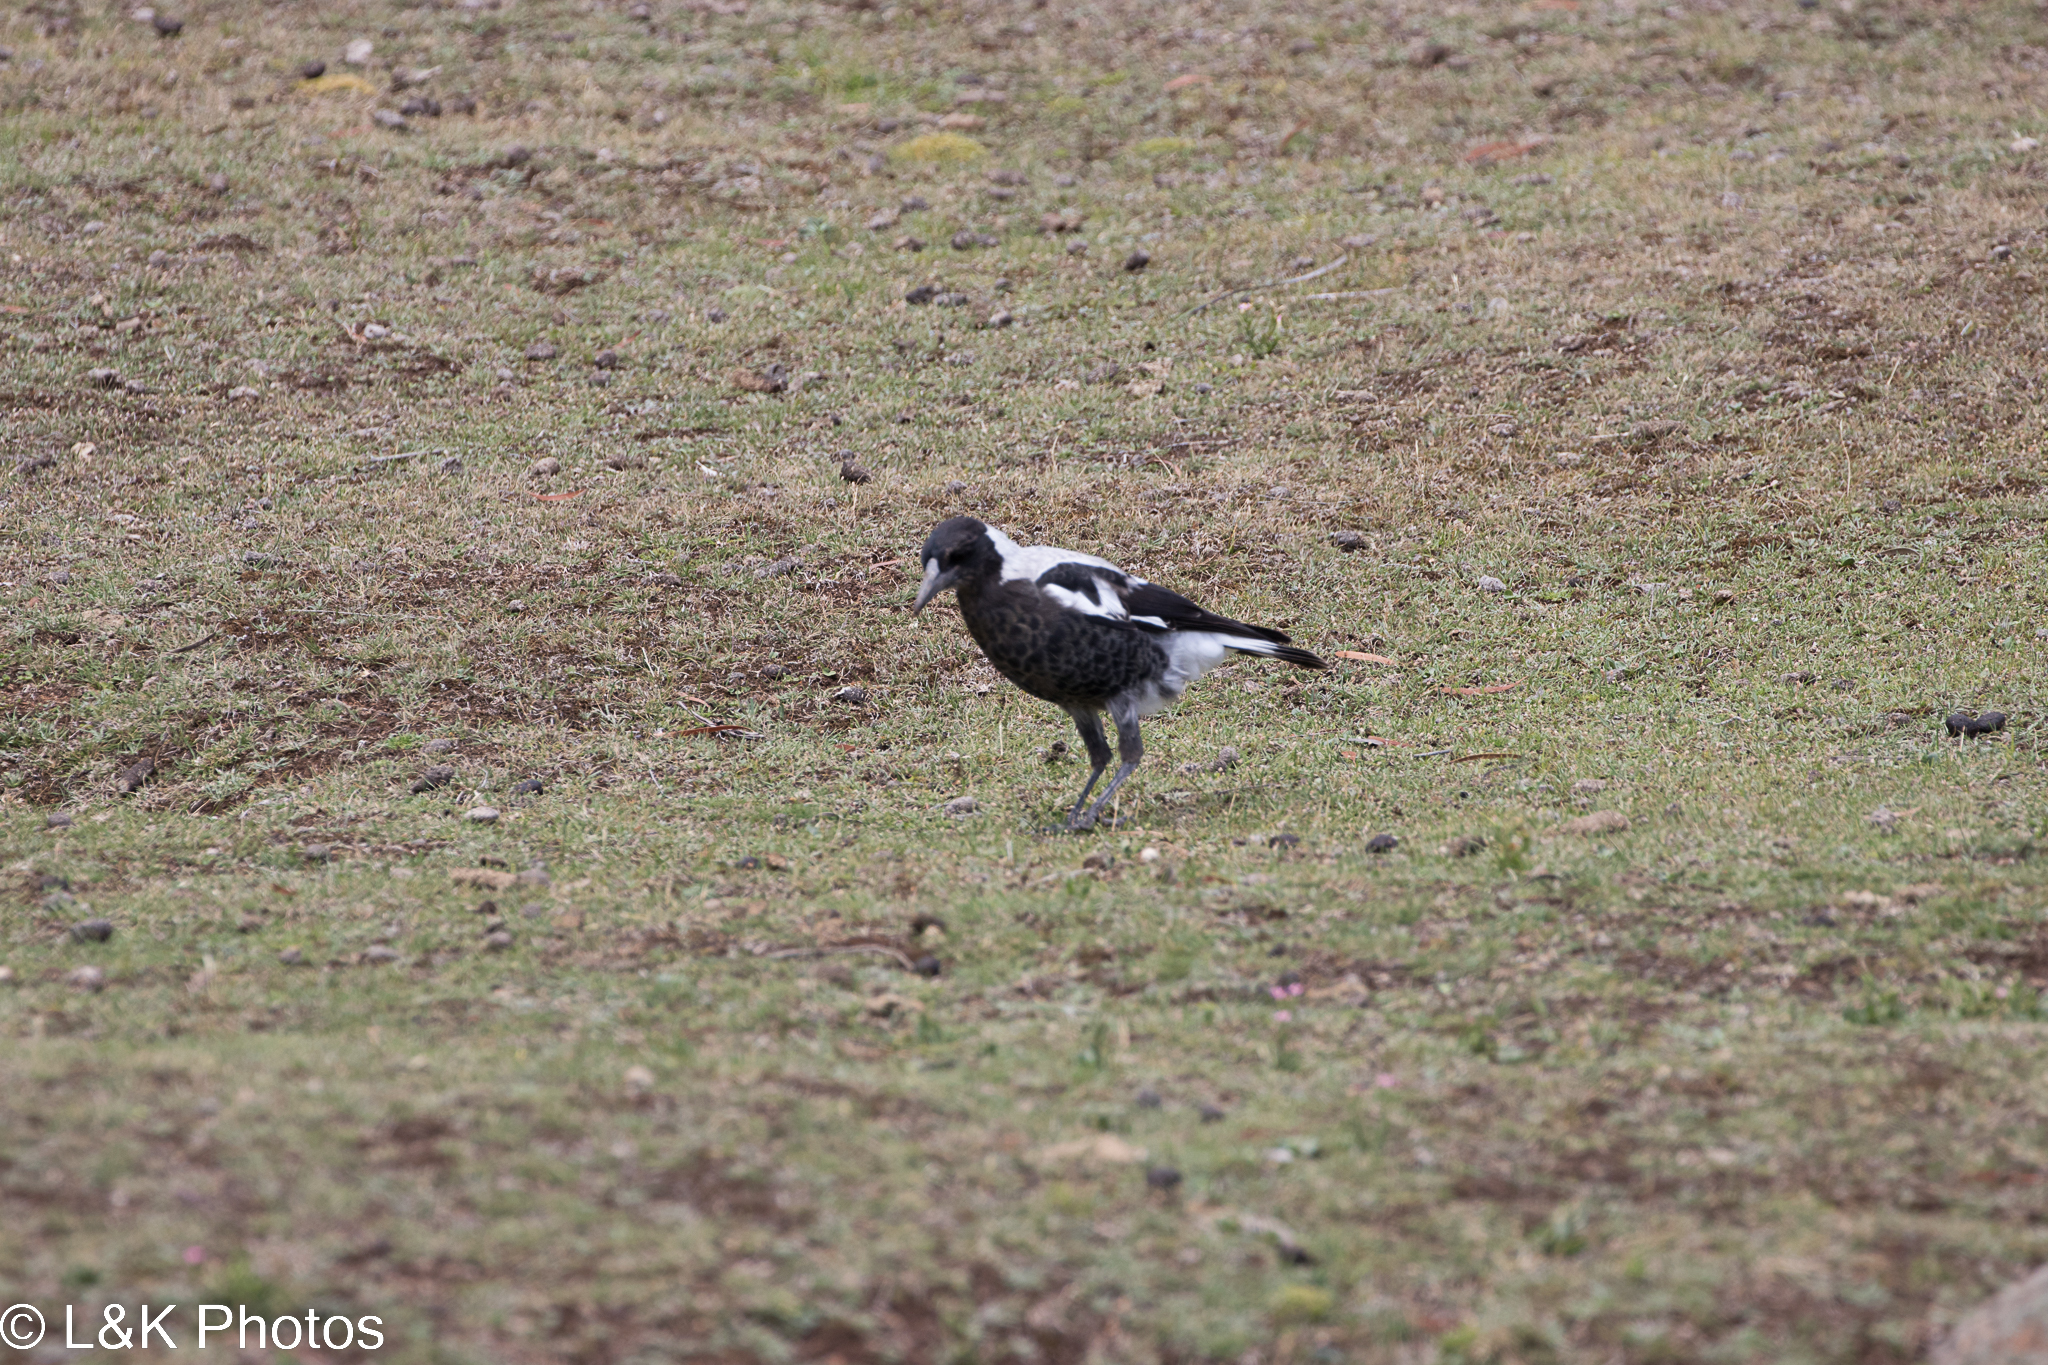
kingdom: Animalia
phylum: Chordata
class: Aves
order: Passeriformes
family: Cracticidae
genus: Gymnorhina
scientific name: Gymnorhina tibicen
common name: Australian magpie
